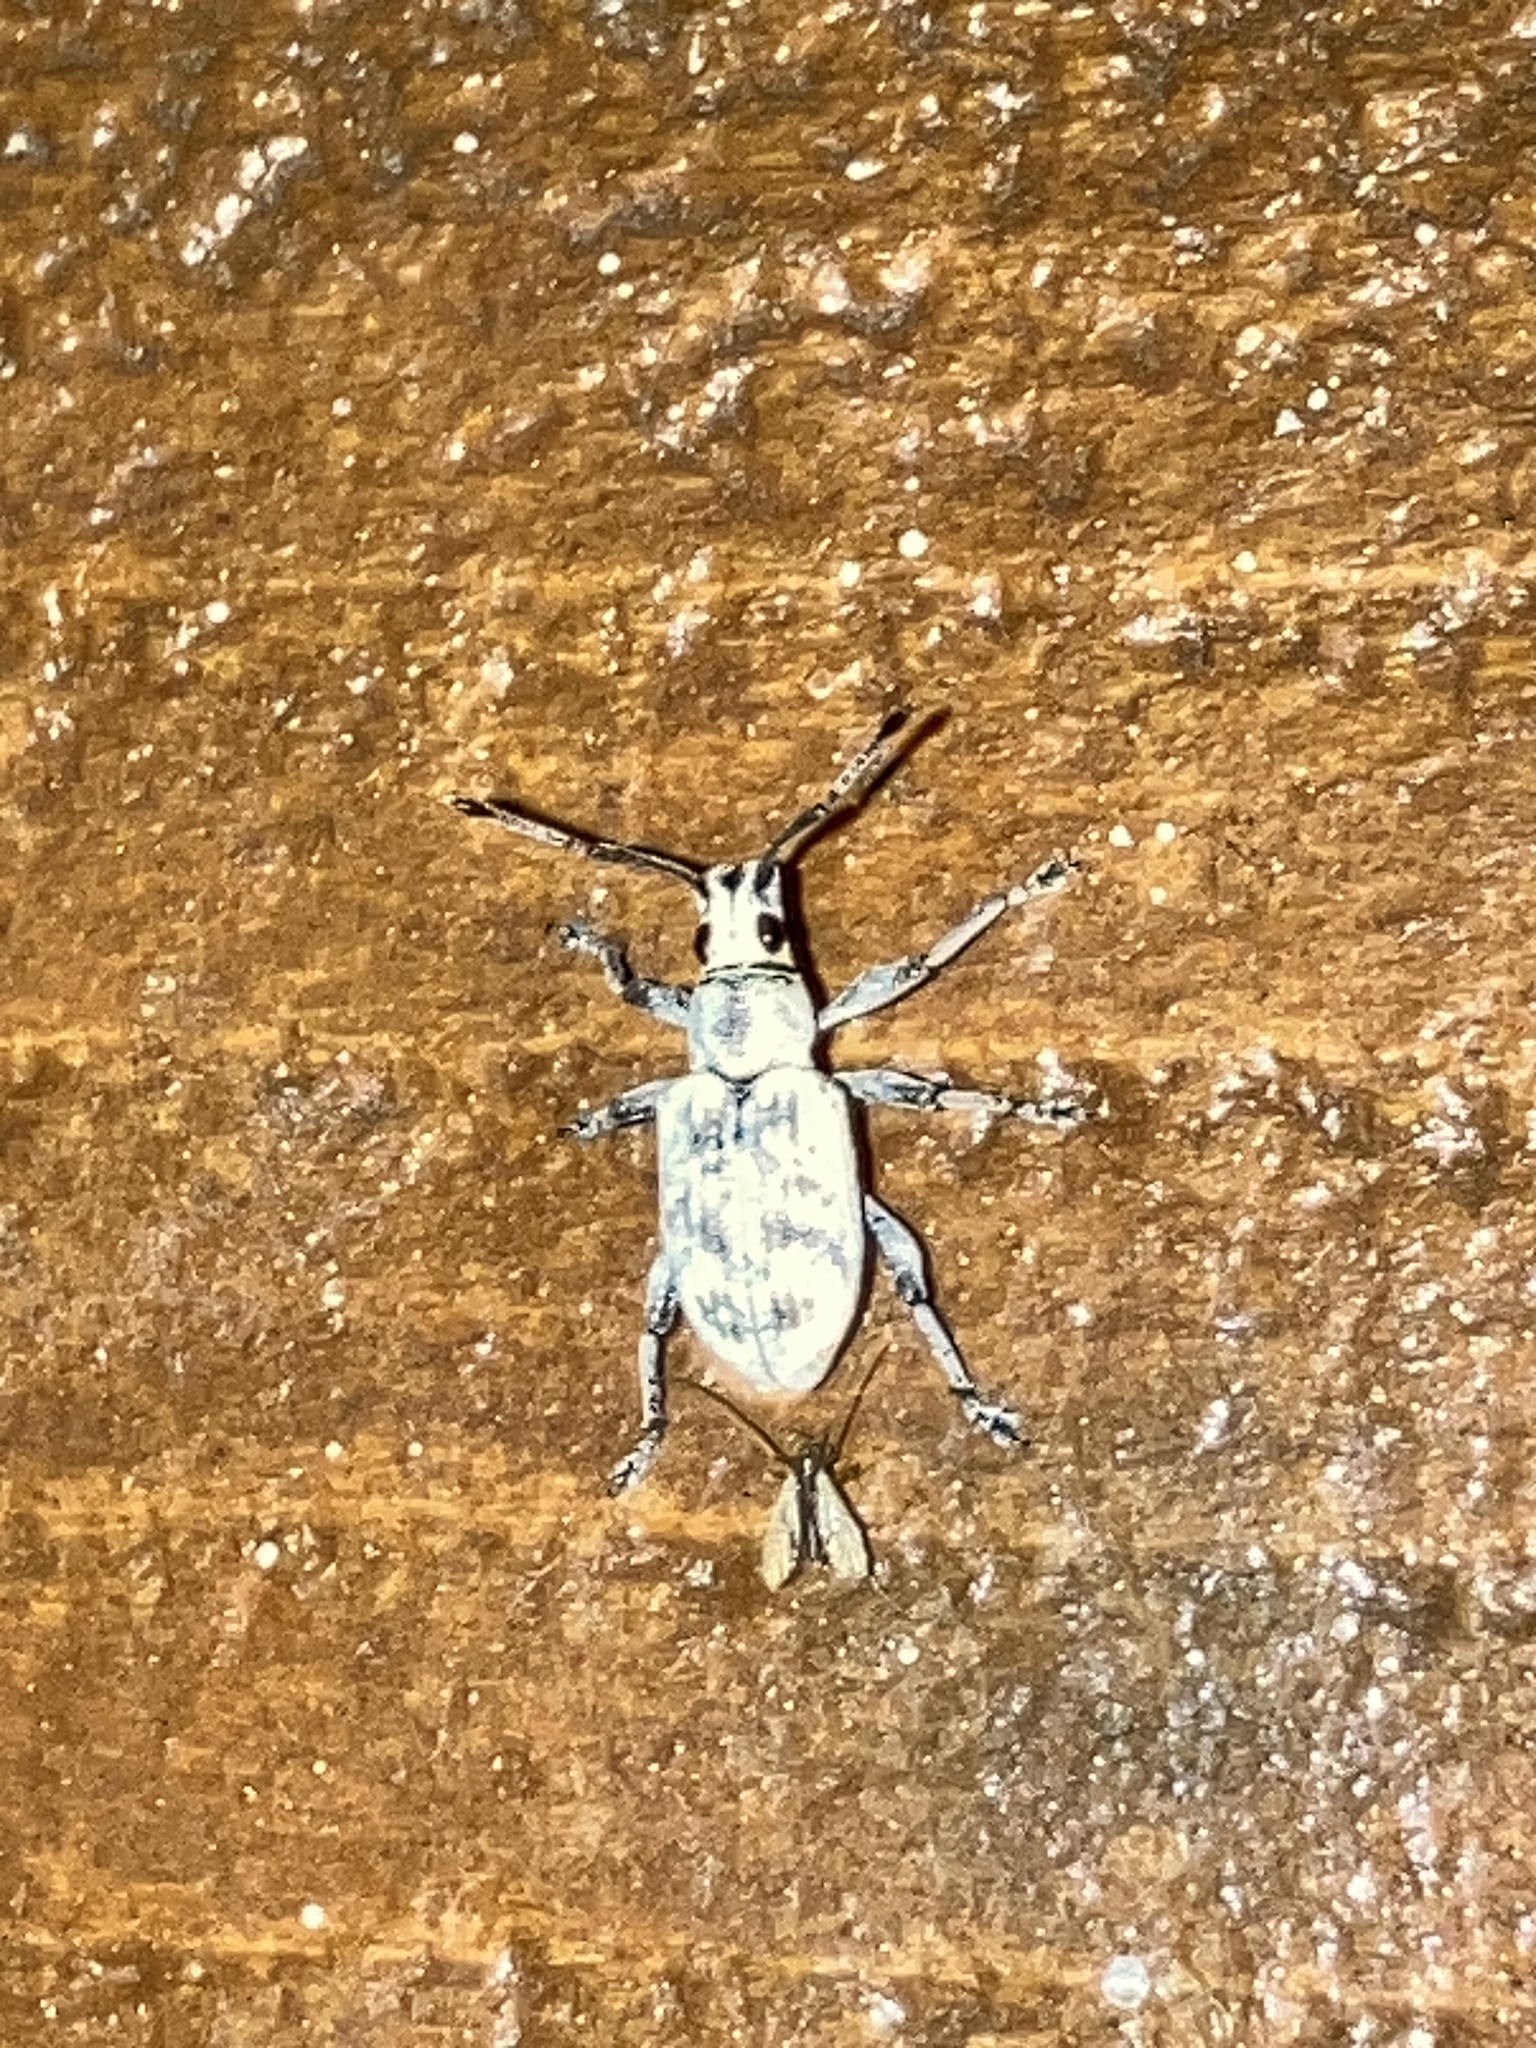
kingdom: Animalia
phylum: Arthropoda
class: Insecta
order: Coleoptera
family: Curculionidae
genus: Myllocerus
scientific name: Myllocerus undecimpustulatus
